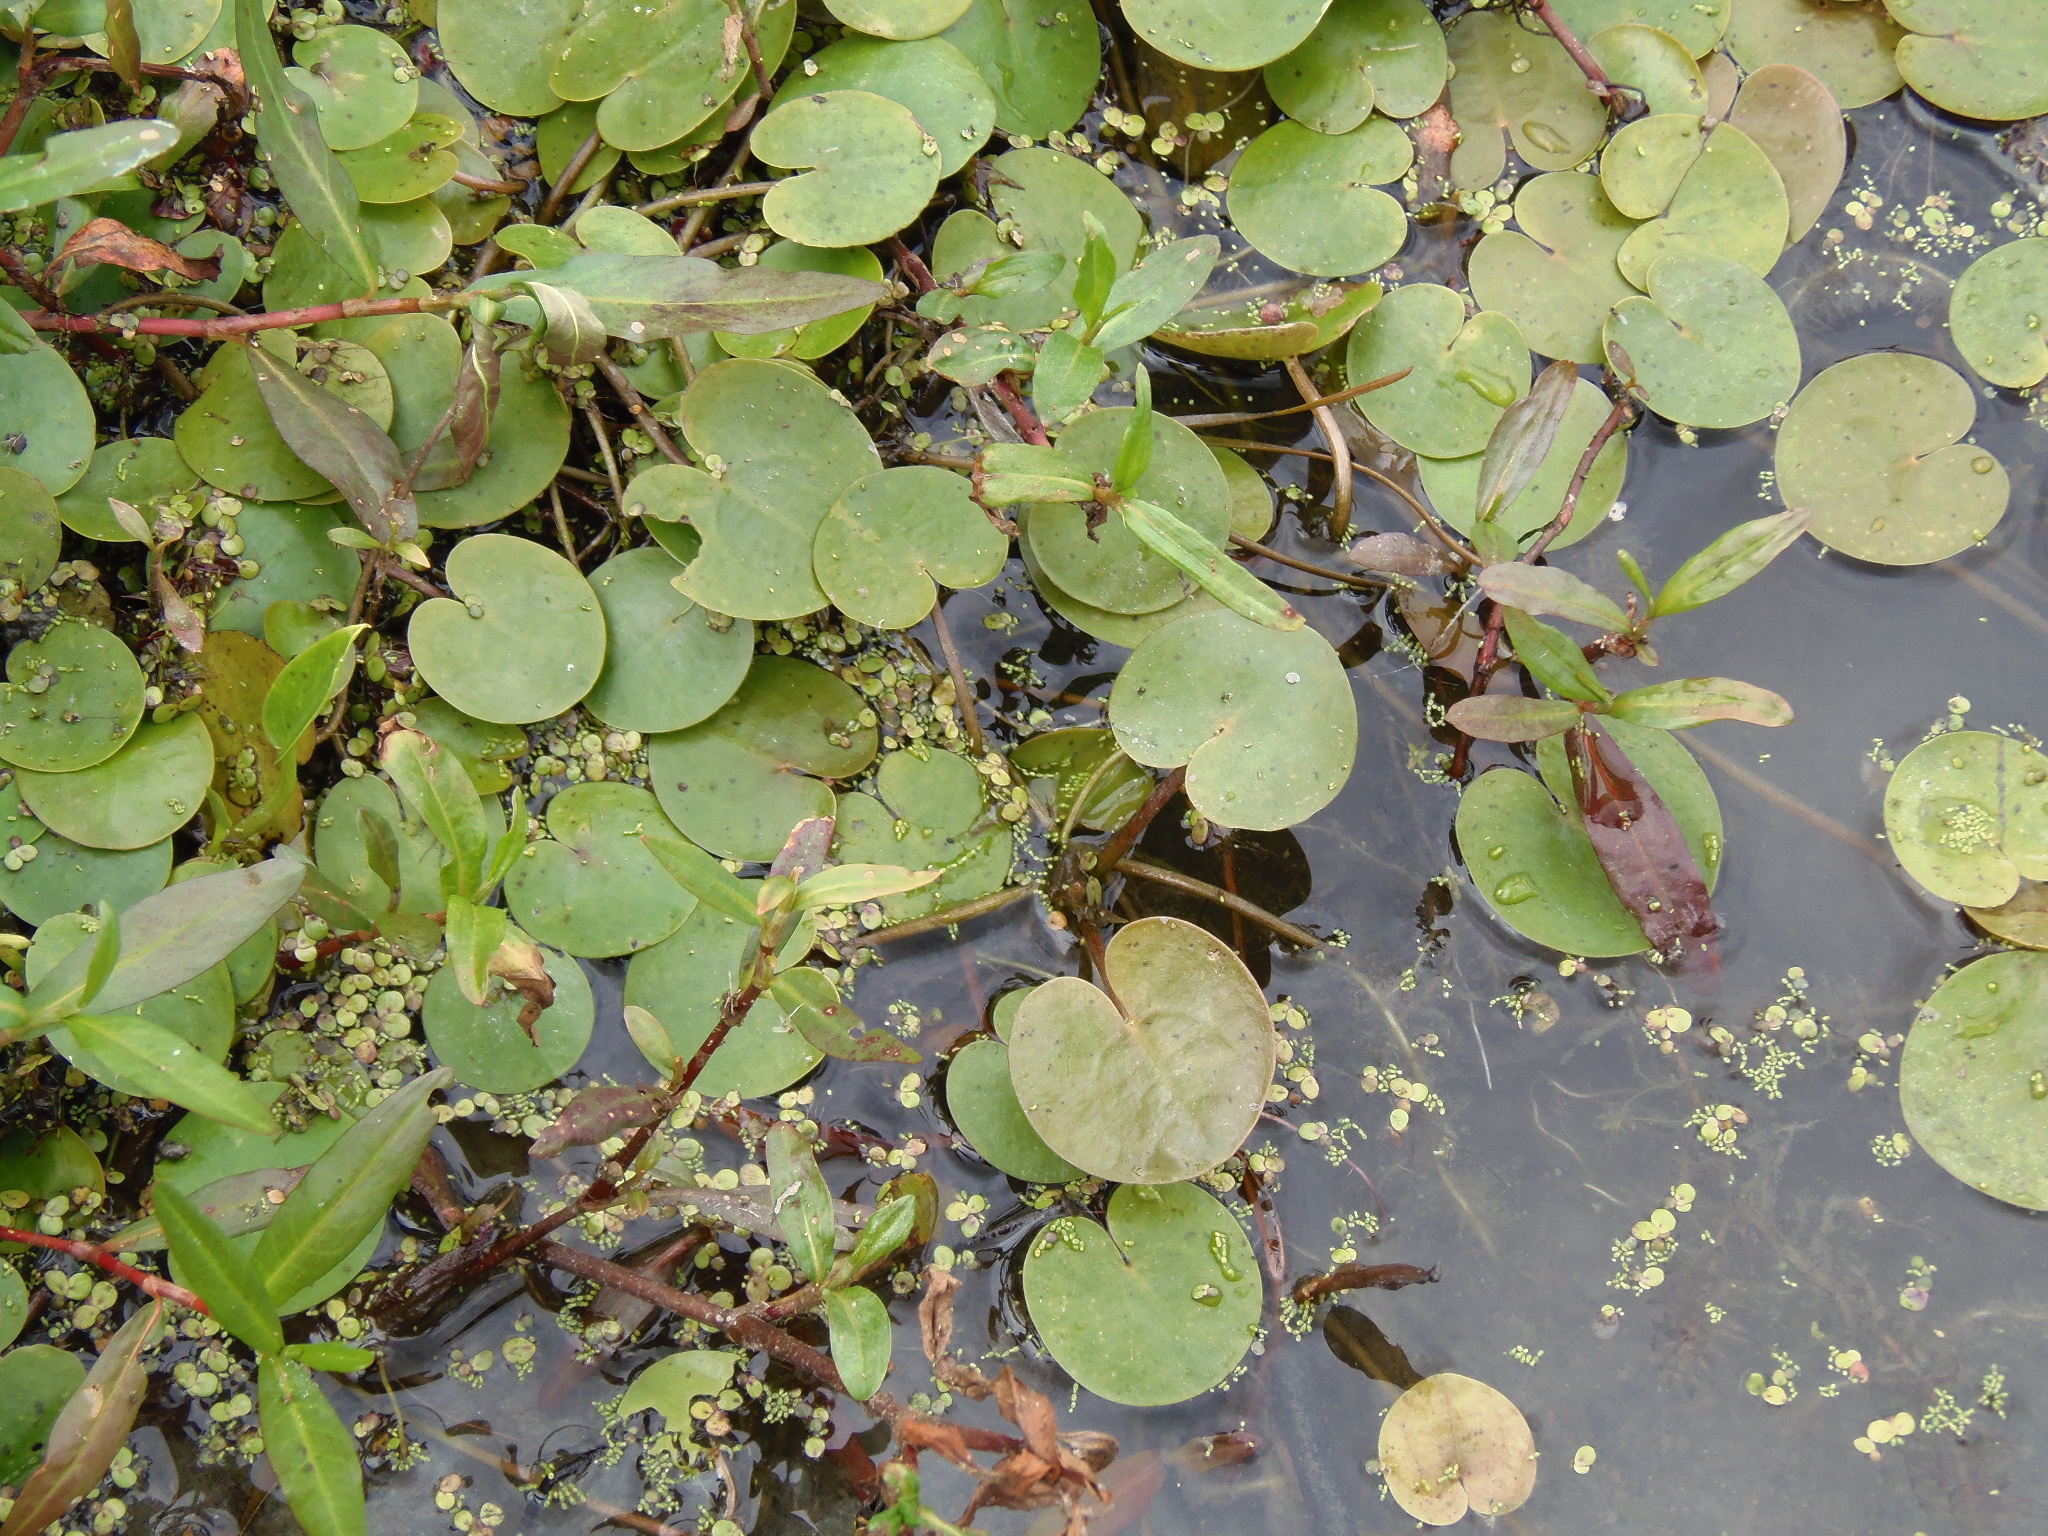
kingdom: Plantae
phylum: Tracheophyta
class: Liliopsida
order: Alismatales
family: Hydrocharitaceae
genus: Hydrocharis
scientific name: Hydrocharis morsus-ranae
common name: Frogbit
